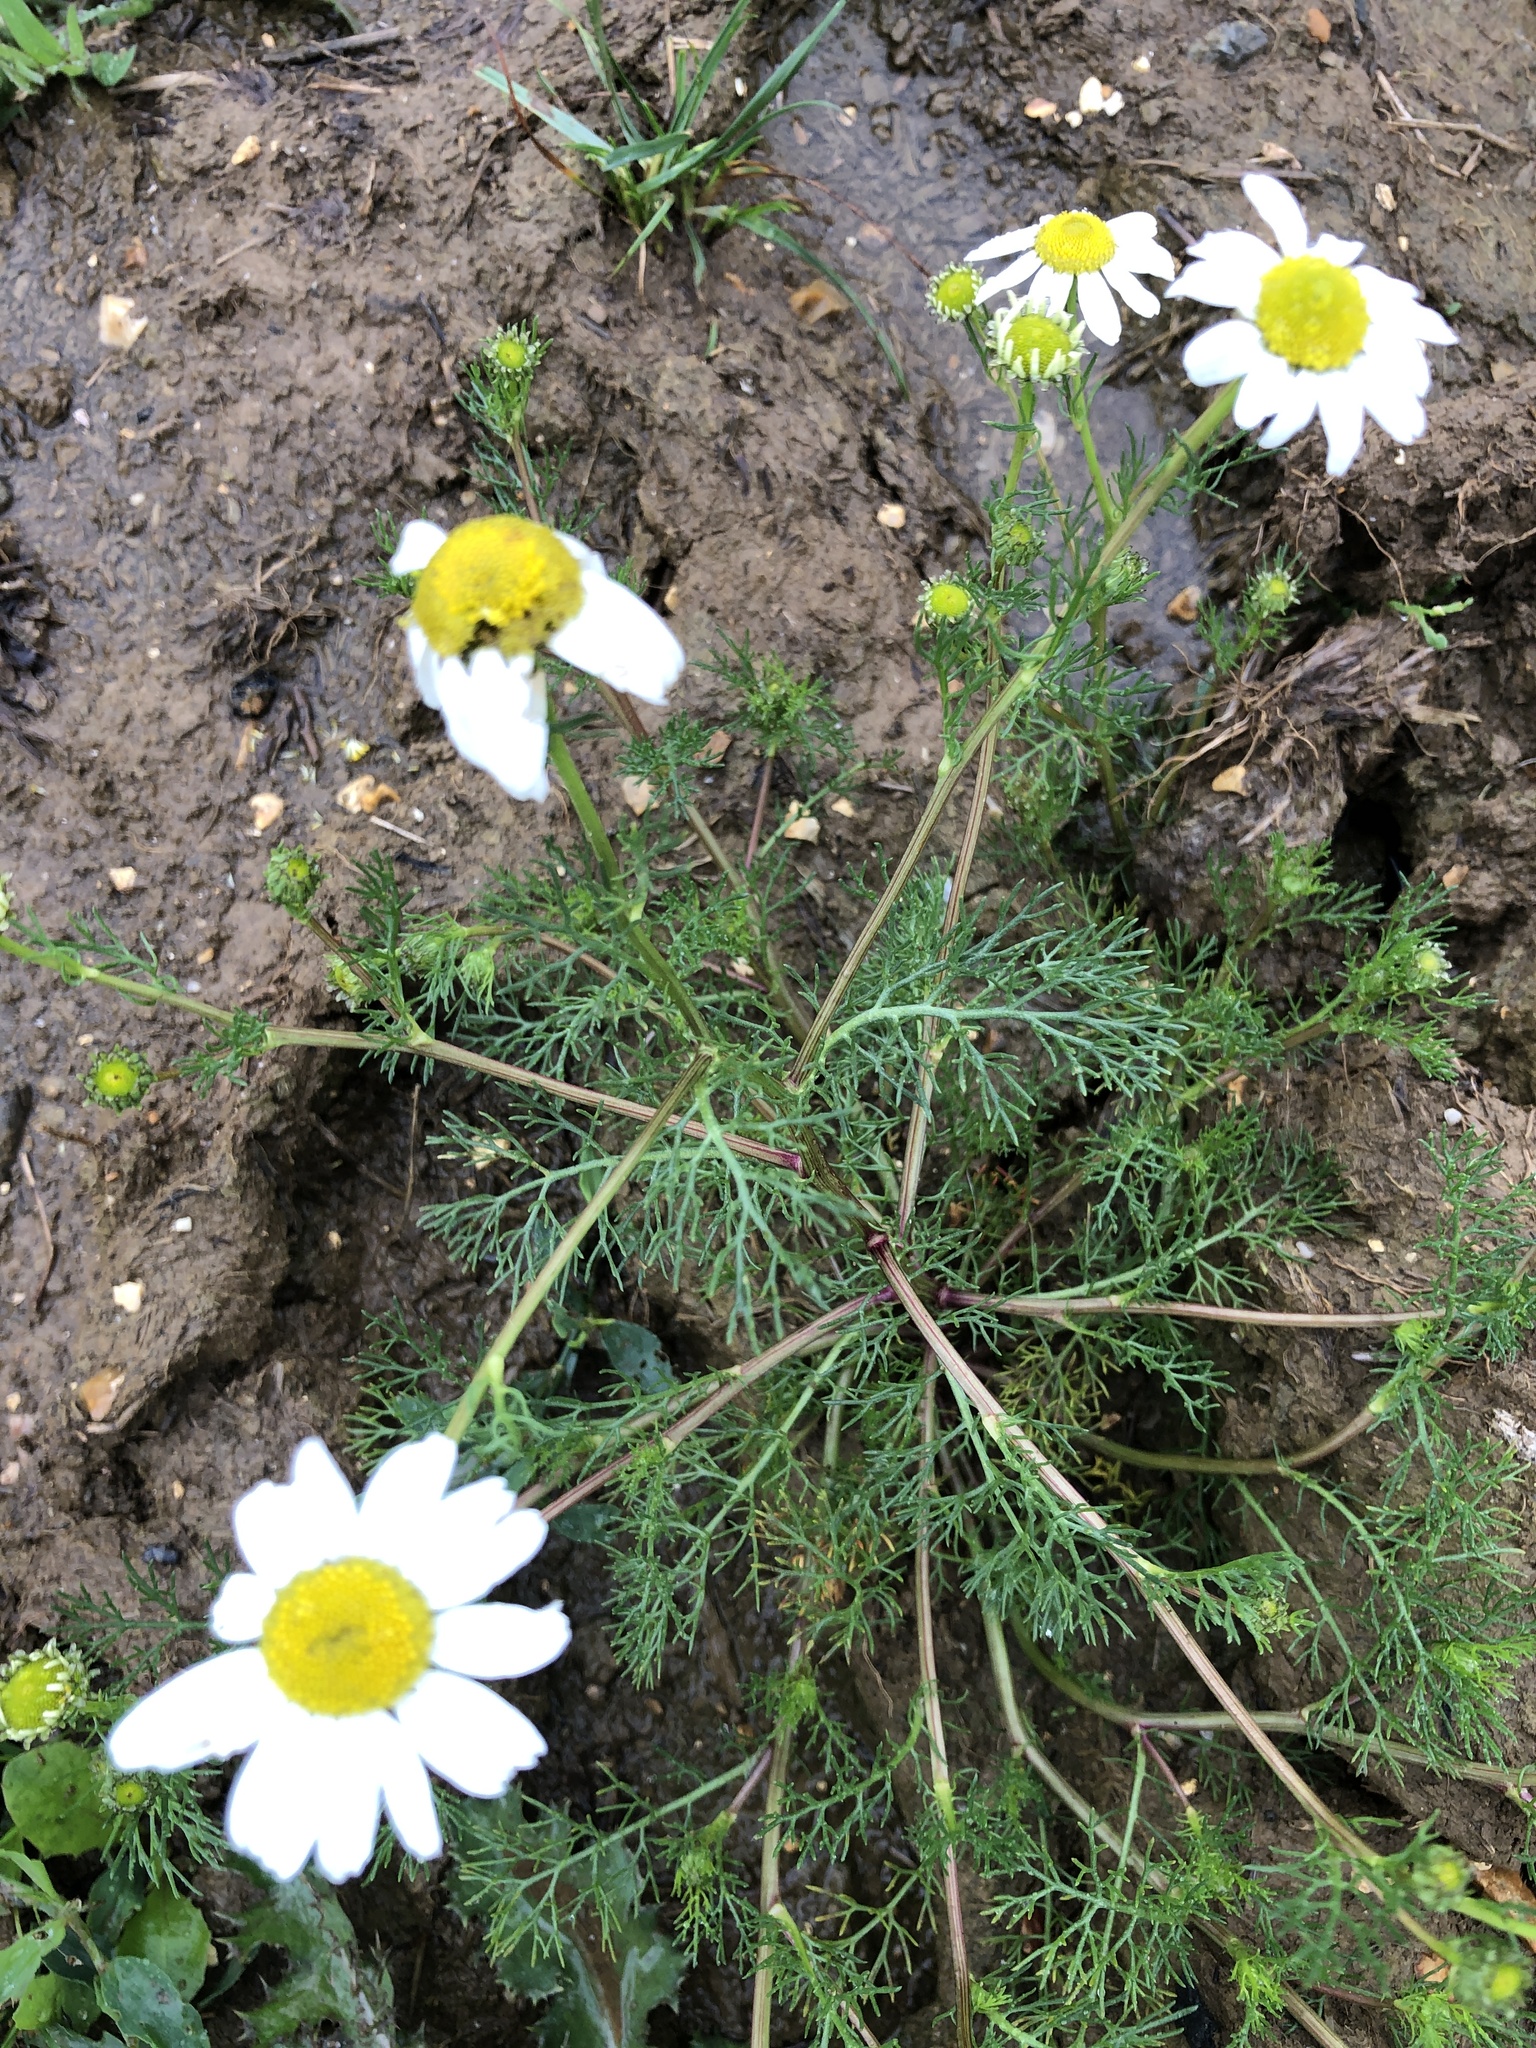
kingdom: Plantae
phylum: Tracheophyta
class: Magnoliopsida
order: Asterales
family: Asteraceae
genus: Tripleurospermum
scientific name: Tripleurospermum inodorum
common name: Scentless mayweed
